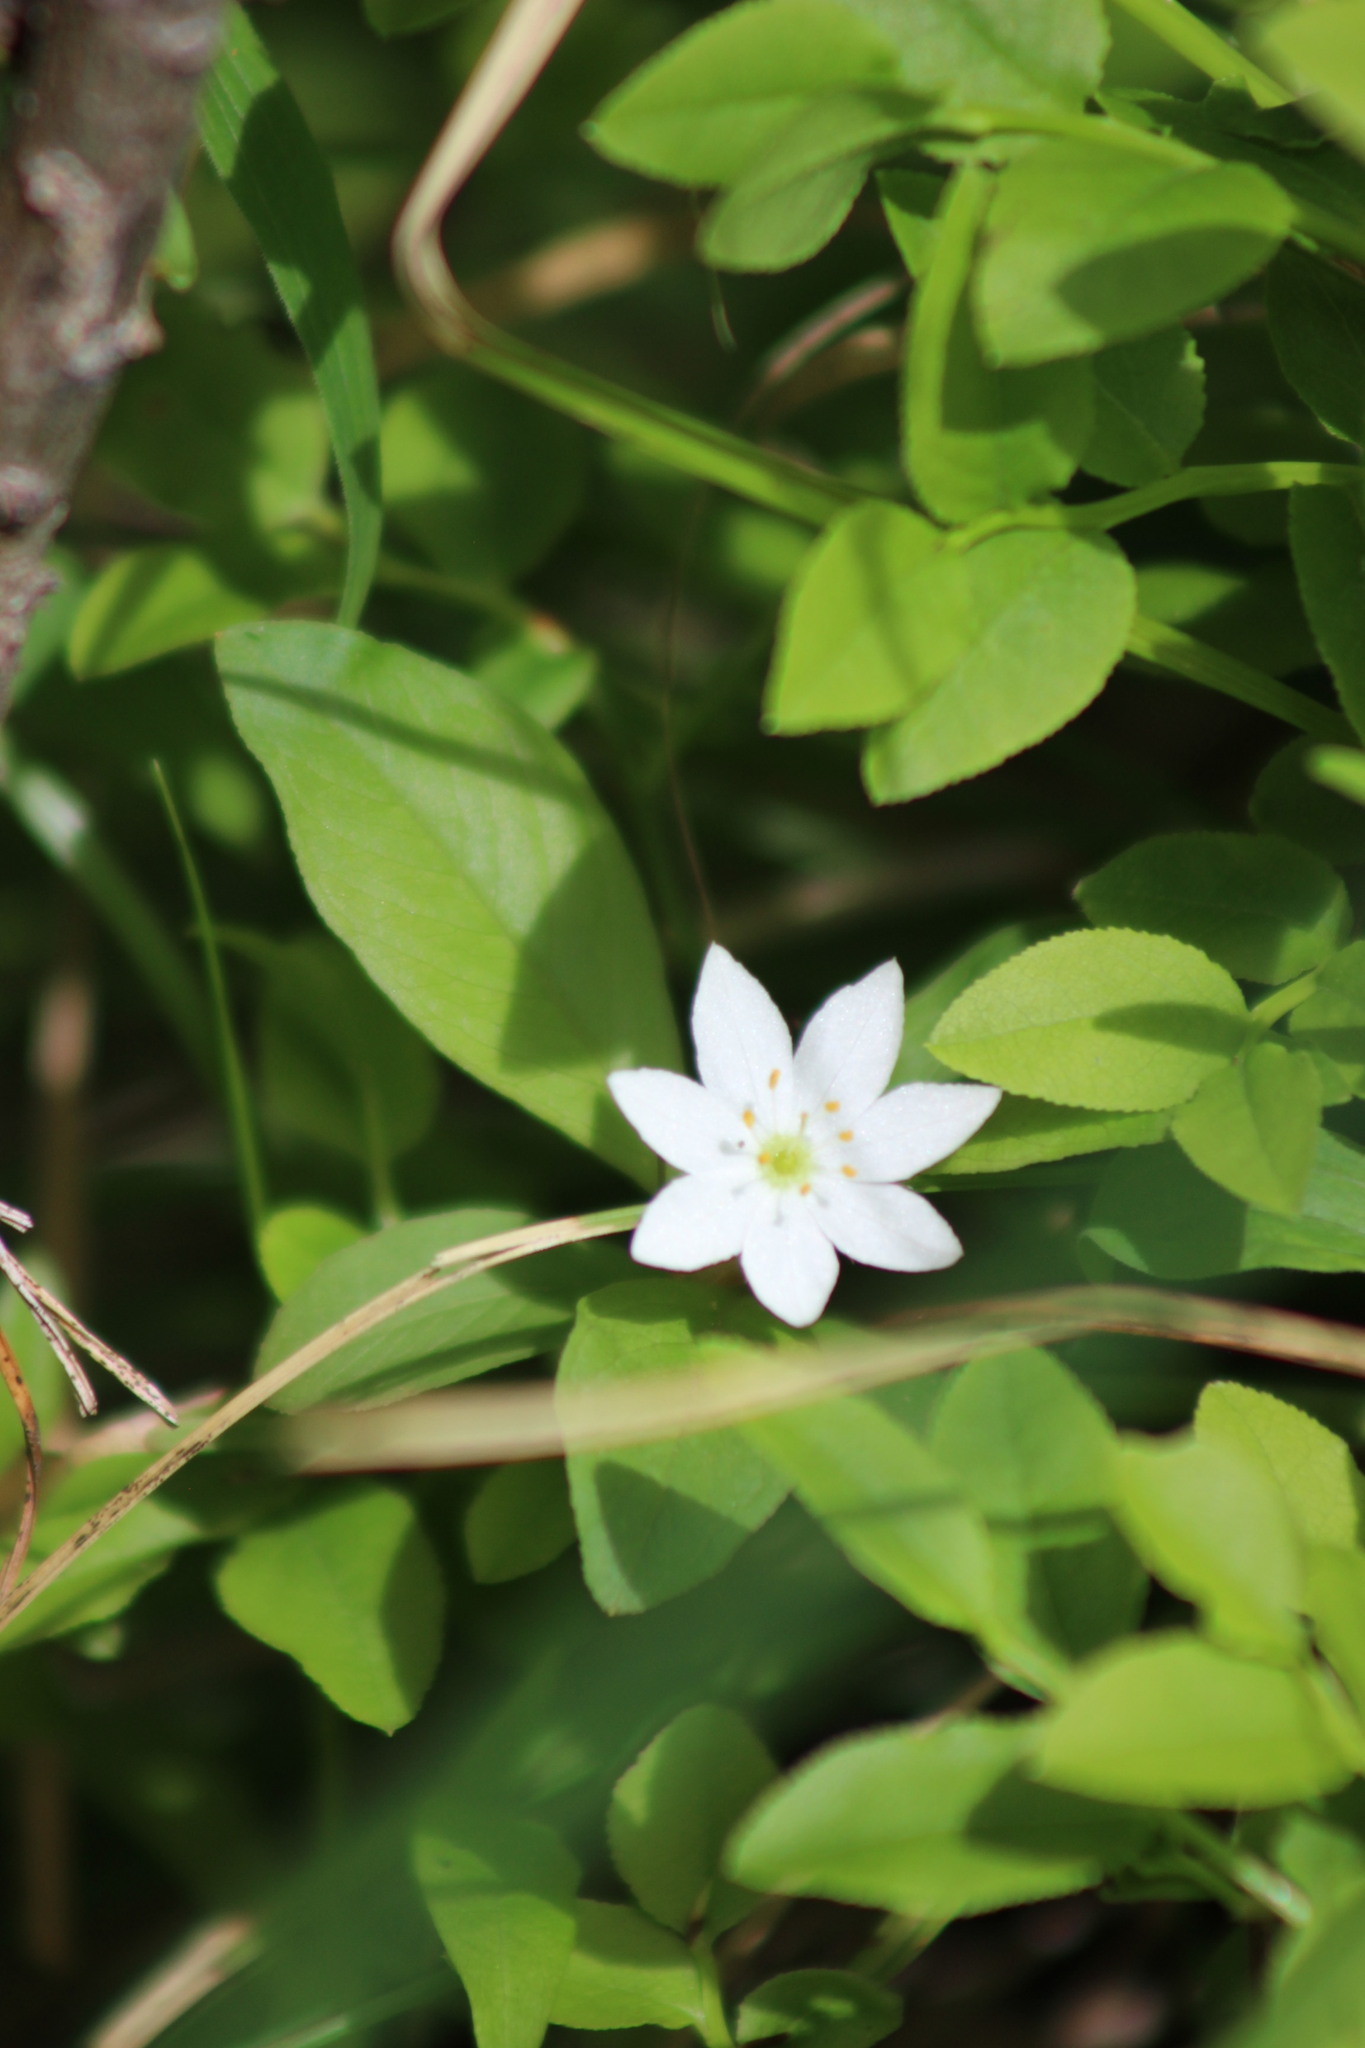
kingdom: Plantae
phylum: Tracheophyta
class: Magnoliopsida
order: Ericales
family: Primulaceae
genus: Lysimachia
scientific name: Lysimachia europaea
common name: Arctic starflower
